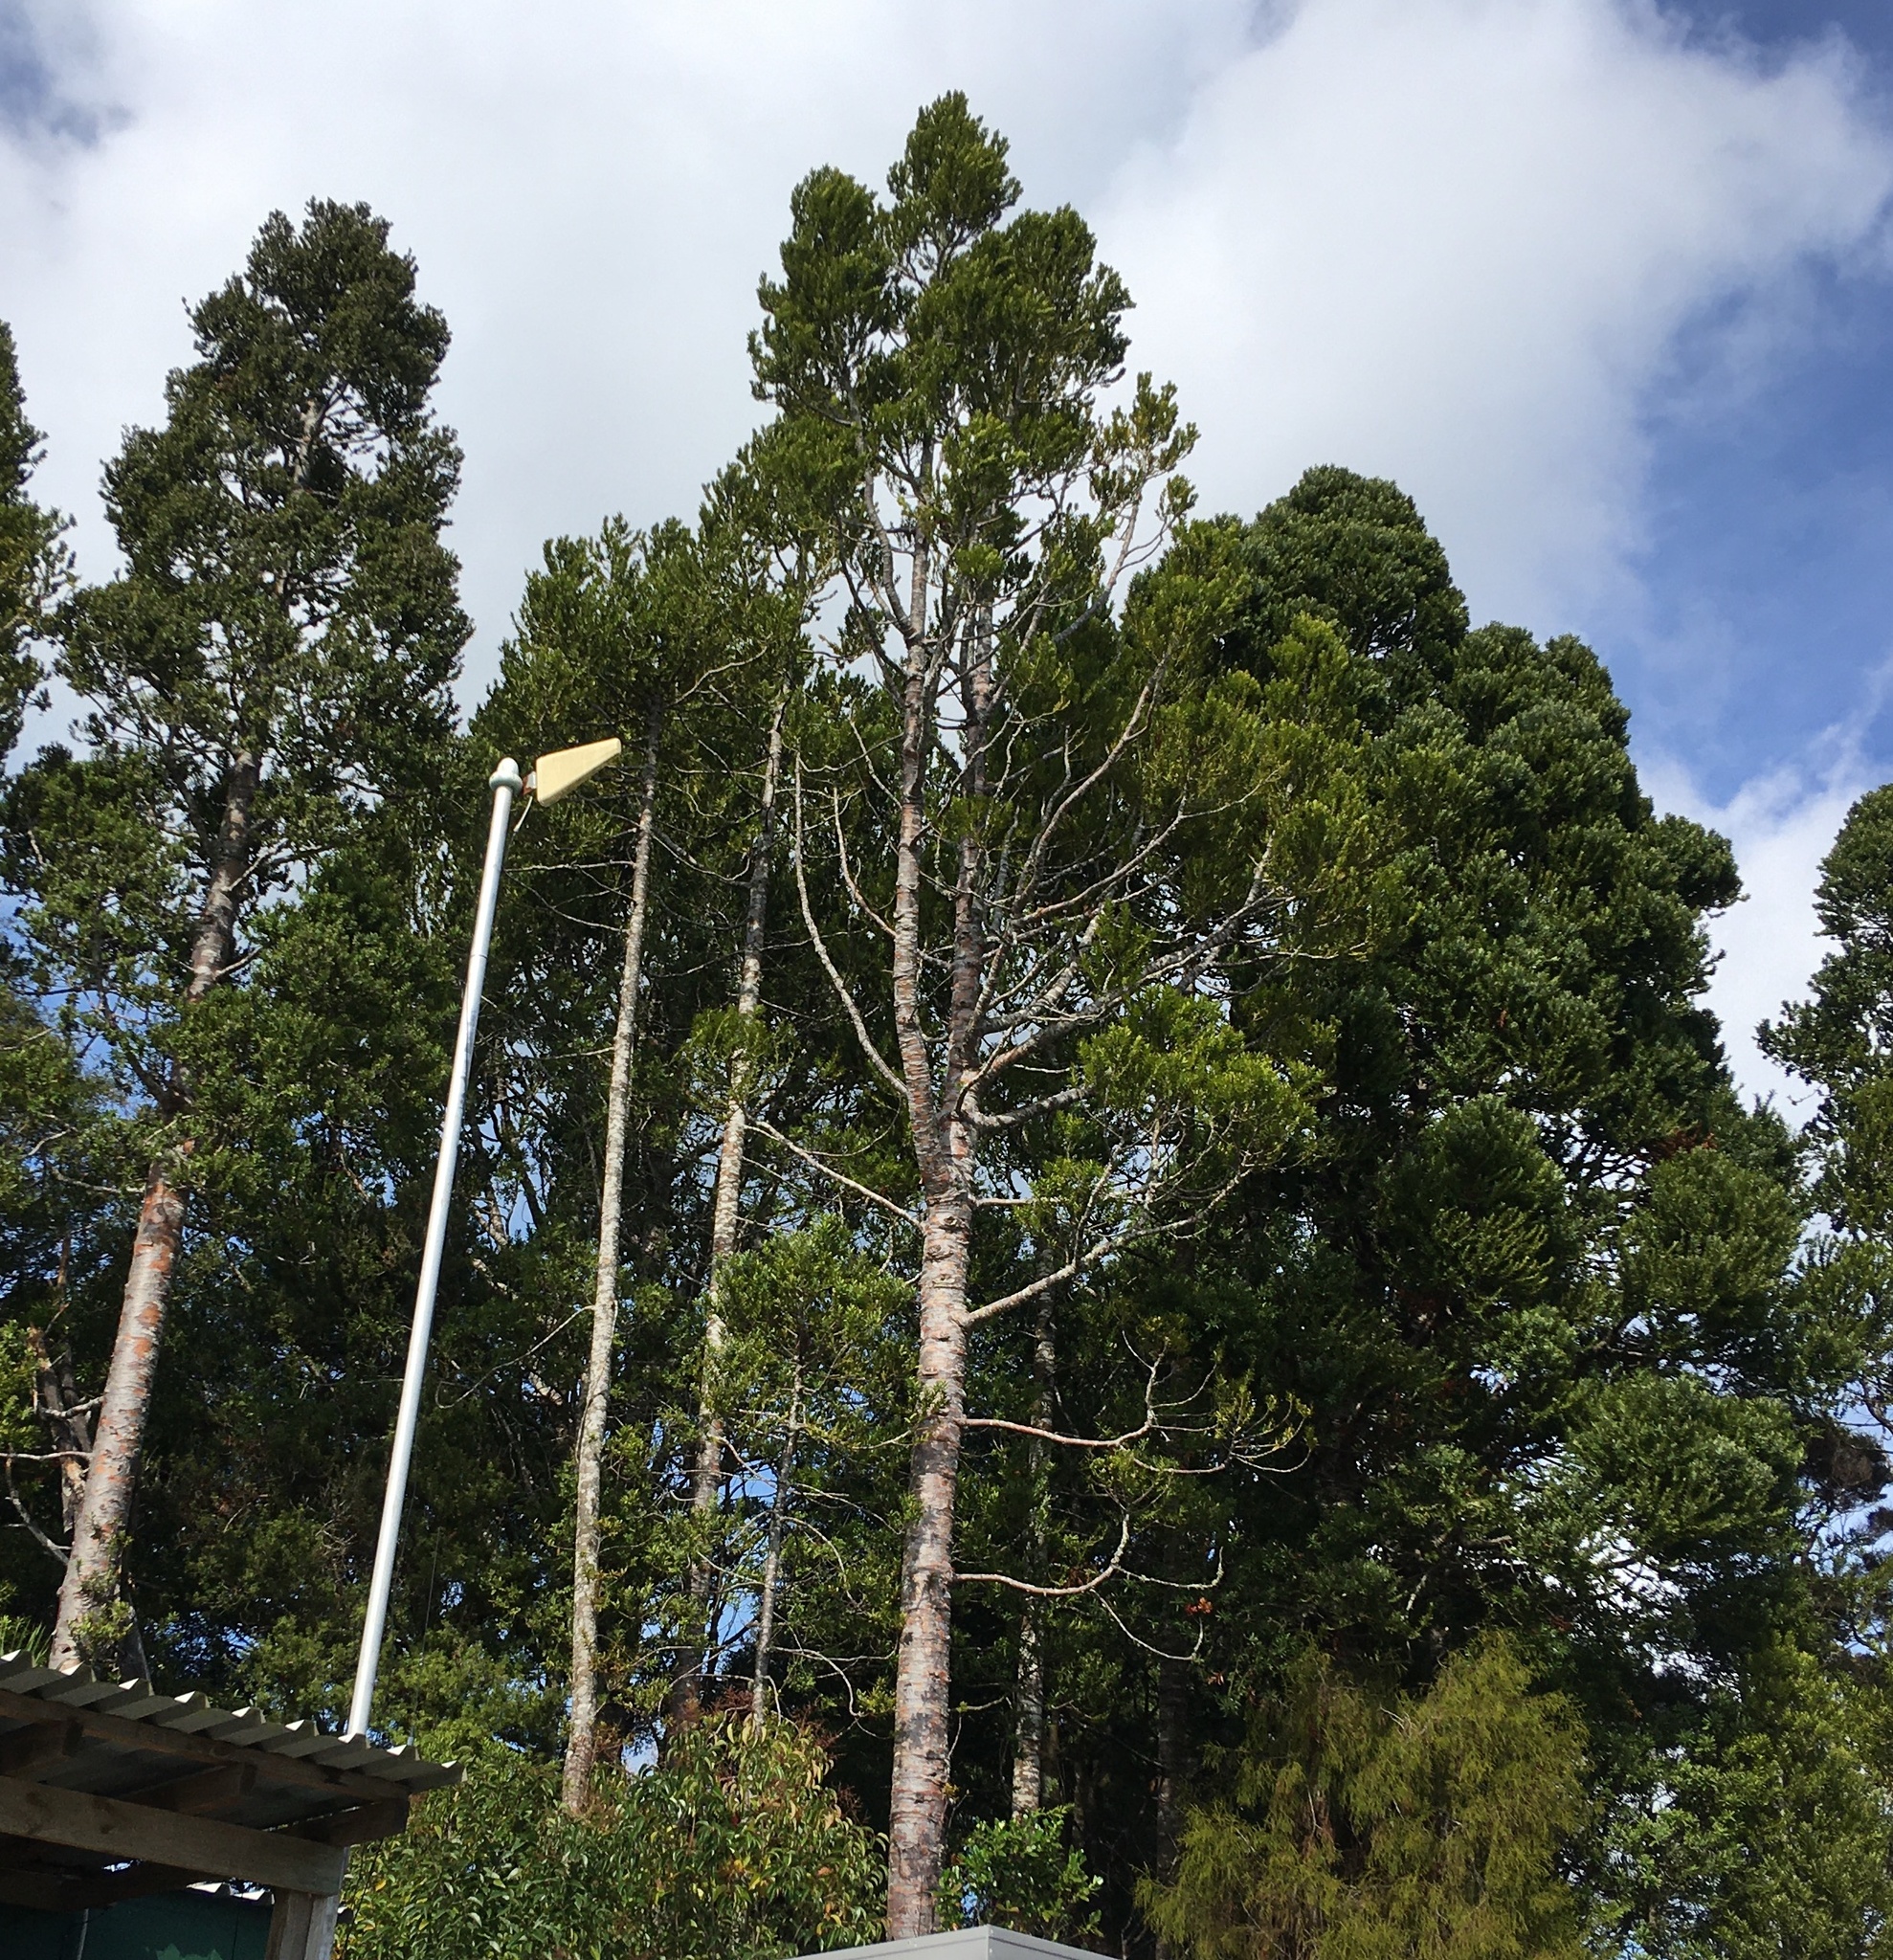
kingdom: Plantae
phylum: Tracheophyta
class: Pinopsida
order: Pinales
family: Araucariaceae
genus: Agathis
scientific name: Agathis australis
